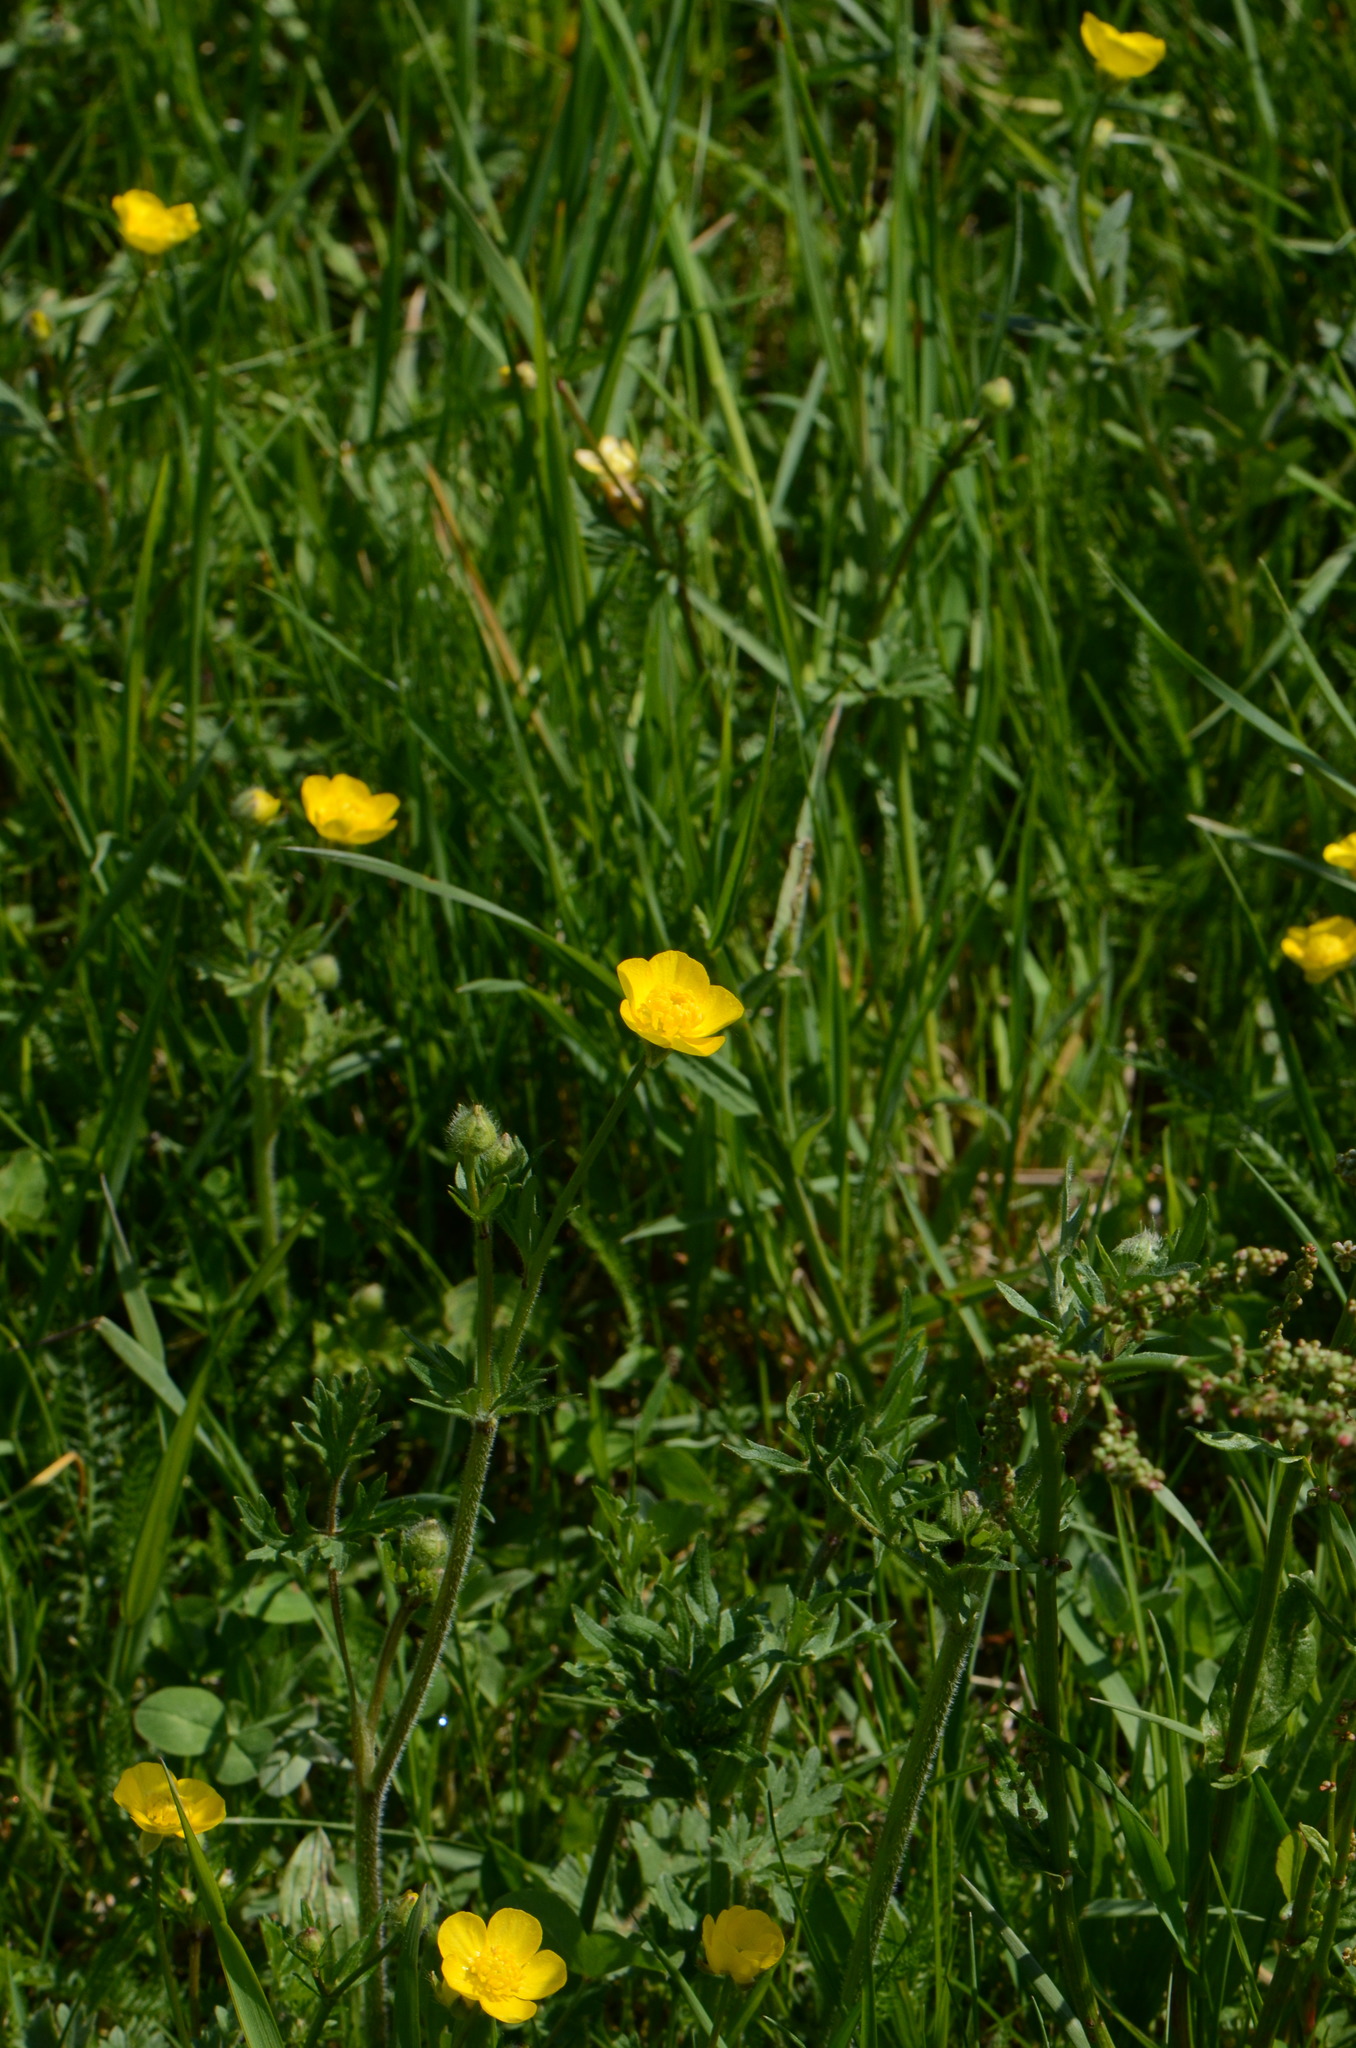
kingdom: Plantae
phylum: Tracheophyta
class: Magnoliopsida
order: Ranunculales
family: Ranunculaceae
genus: Ranunculus
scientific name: Ranunculus bulbosus
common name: Bulbous buttercup
